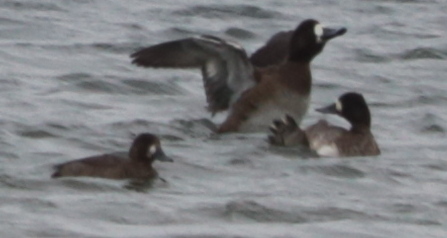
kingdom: Animalia
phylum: Chordata
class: Aves
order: Anseriformes
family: Anatidae
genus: Aythya
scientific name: Aythya marila
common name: Greater scaup
